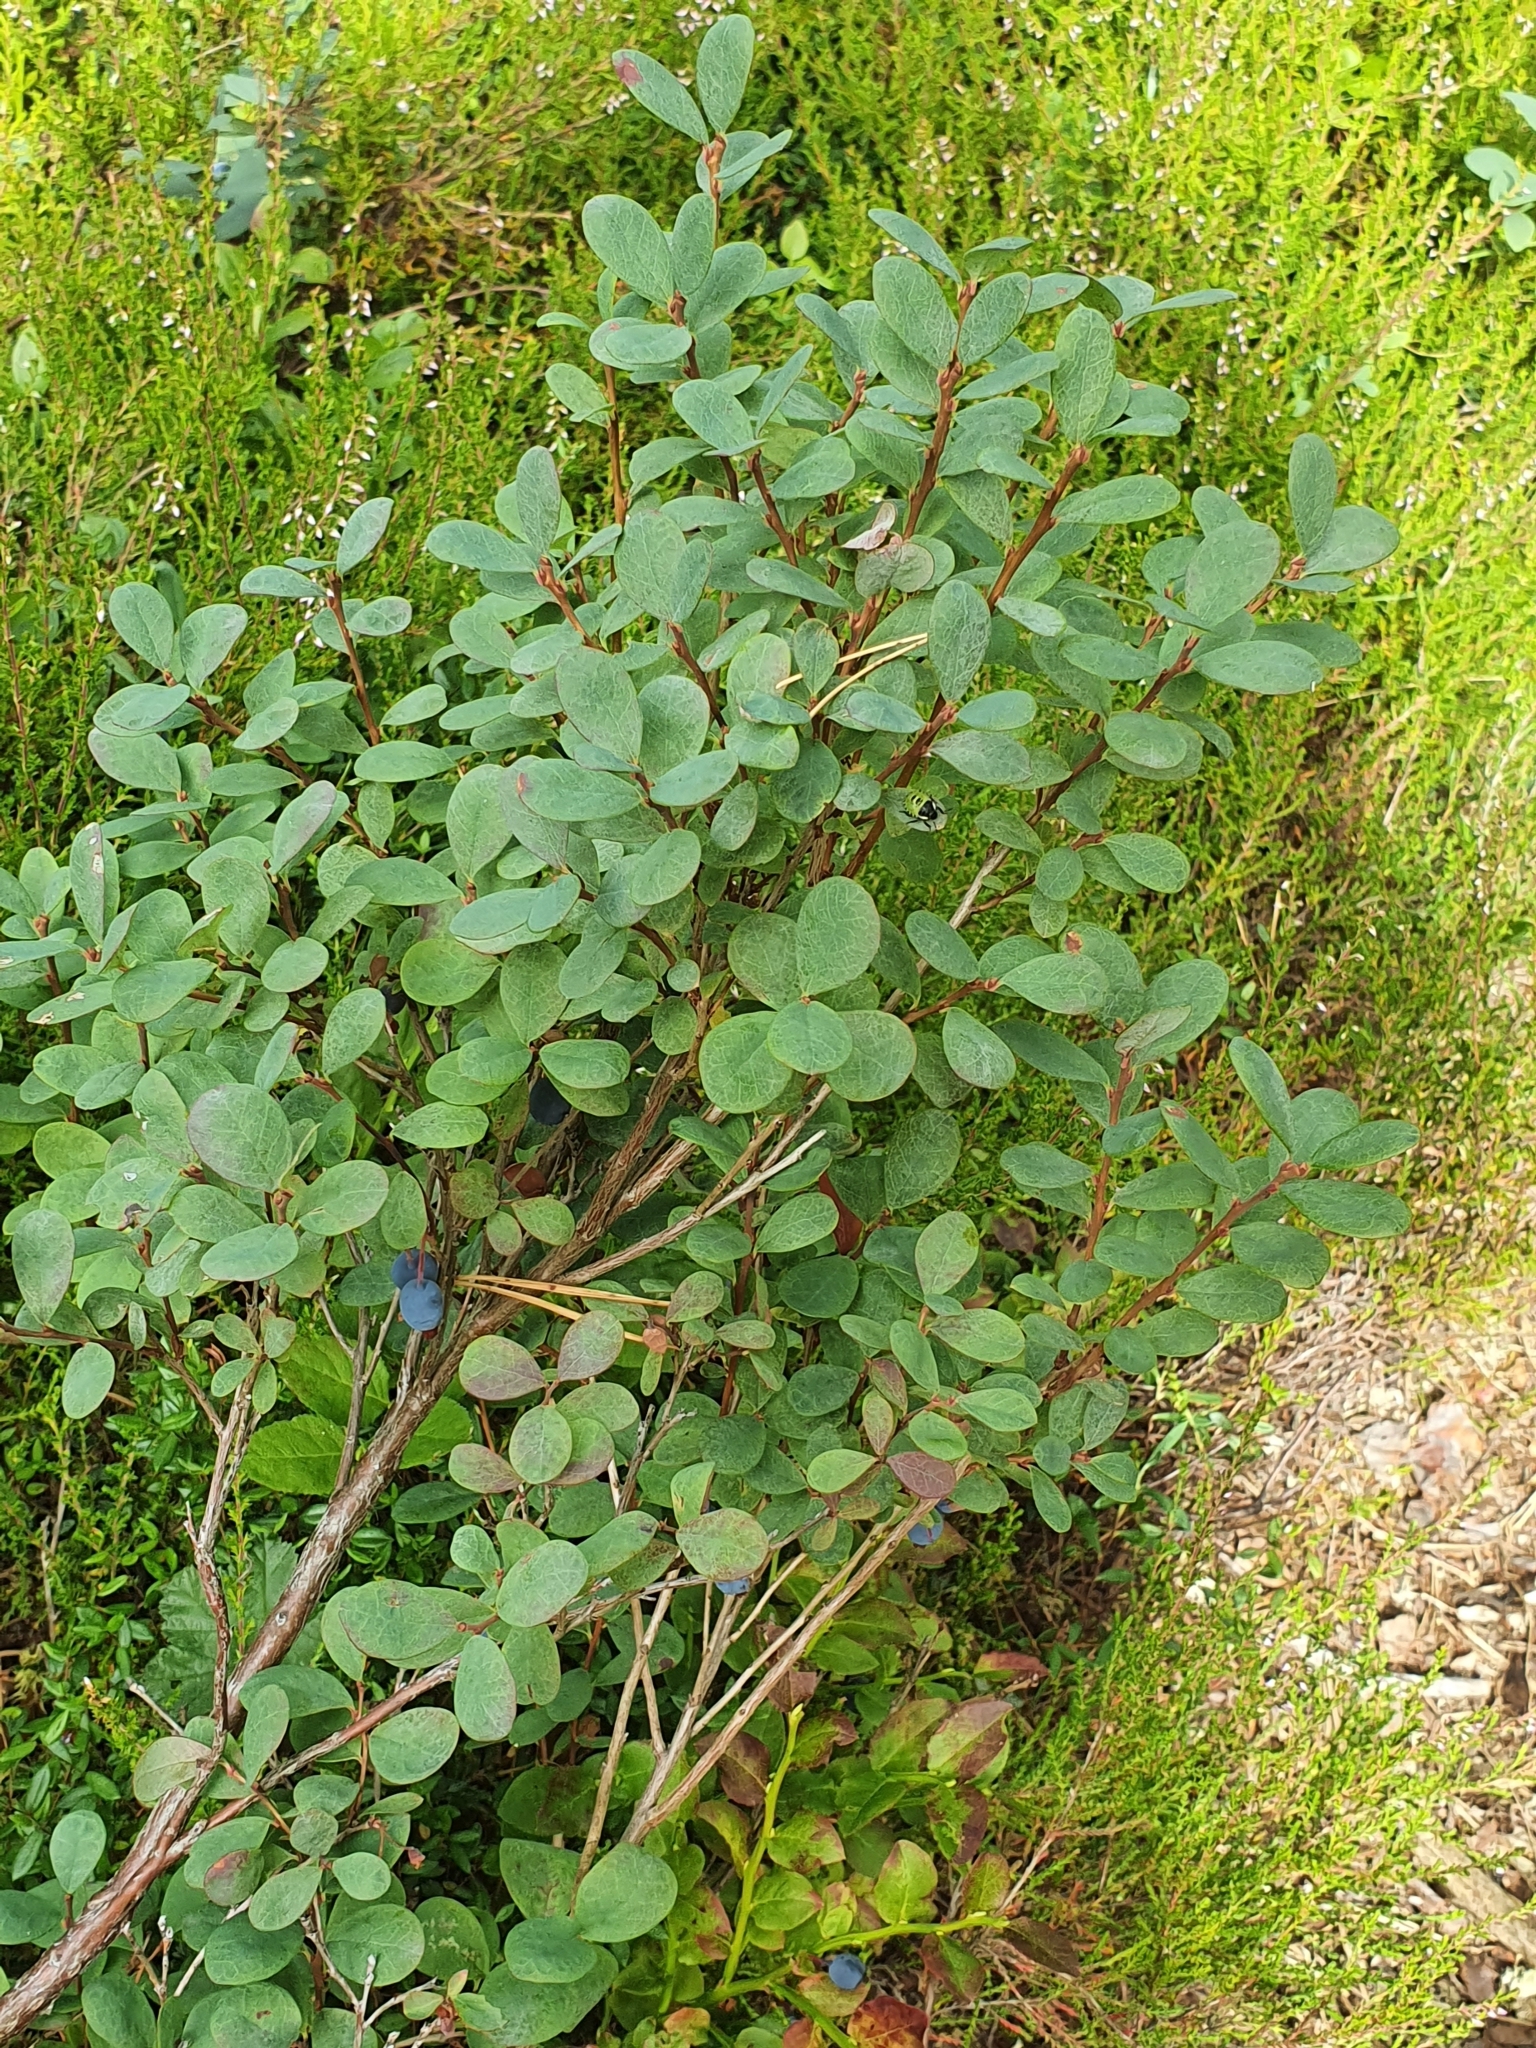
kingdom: Plantae
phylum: Tracheophyta
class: Magnoliopsida
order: Ericales
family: Ericaceae
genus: Vaccinium
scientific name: Vaccinium uliginosum
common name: Bog bilberry
